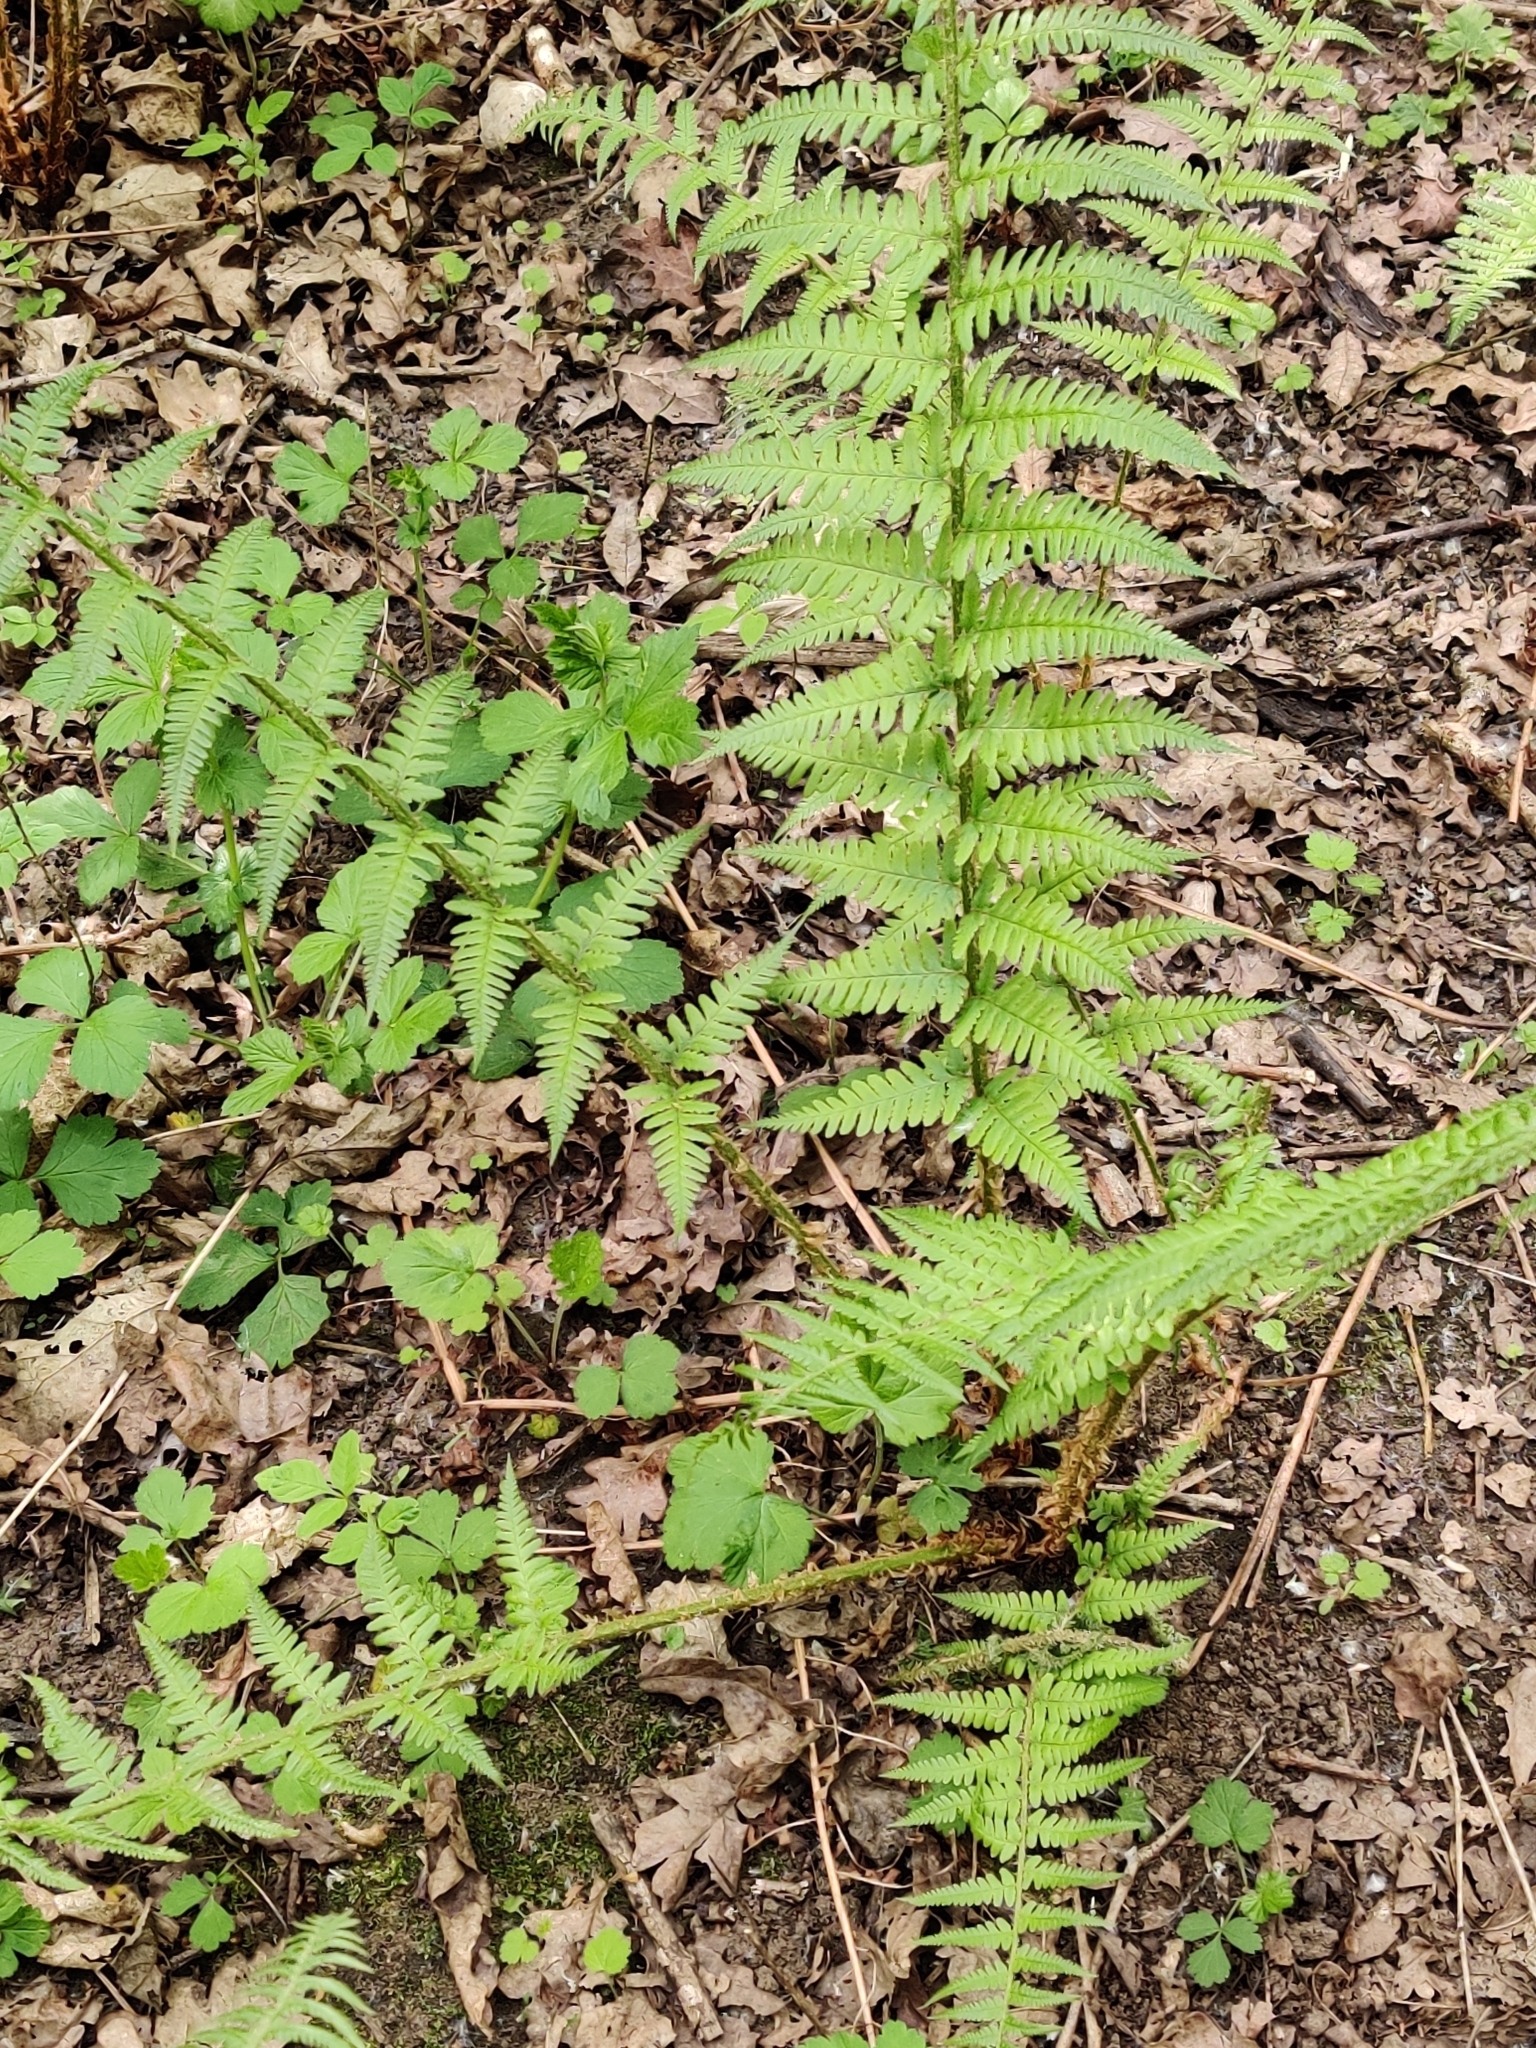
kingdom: Plantae
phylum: Tracheophyta
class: Polypodiopsida
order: Polypodiales
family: Dryopteridaceae
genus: Dryopteris
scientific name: Dryopteris filix-mas
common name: Male fern
